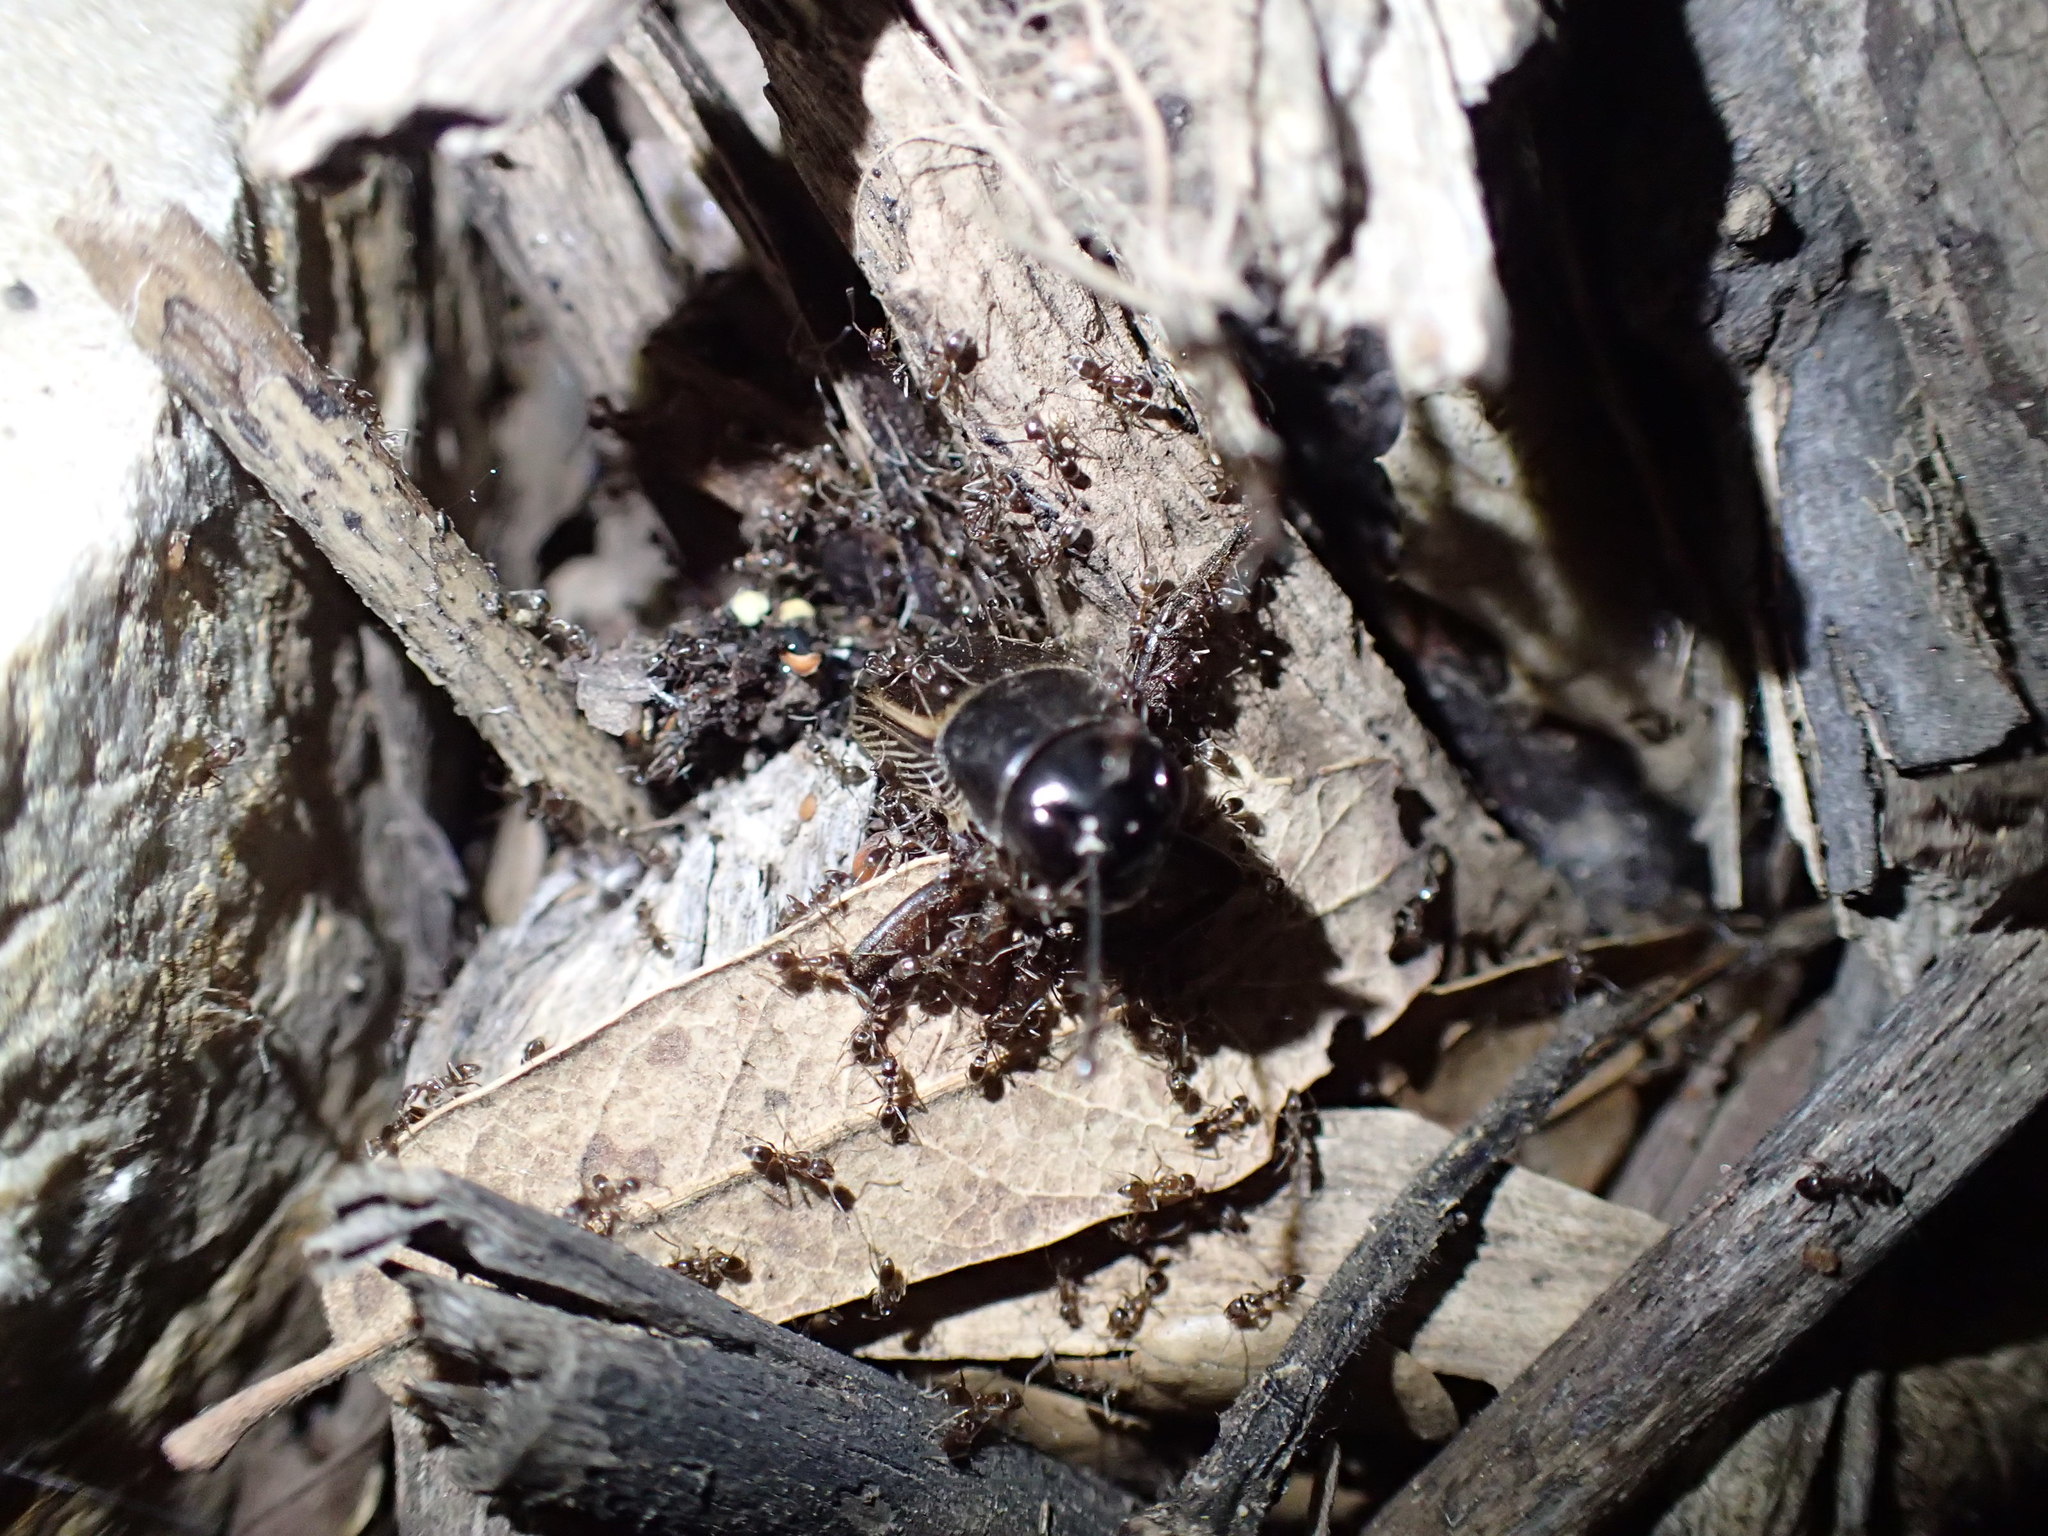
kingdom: Animalia
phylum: Arthropoda
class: Insecta
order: Hymenoptera
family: Formicidae
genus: Linepithema
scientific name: Linepithema humile
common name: Argentine ant
